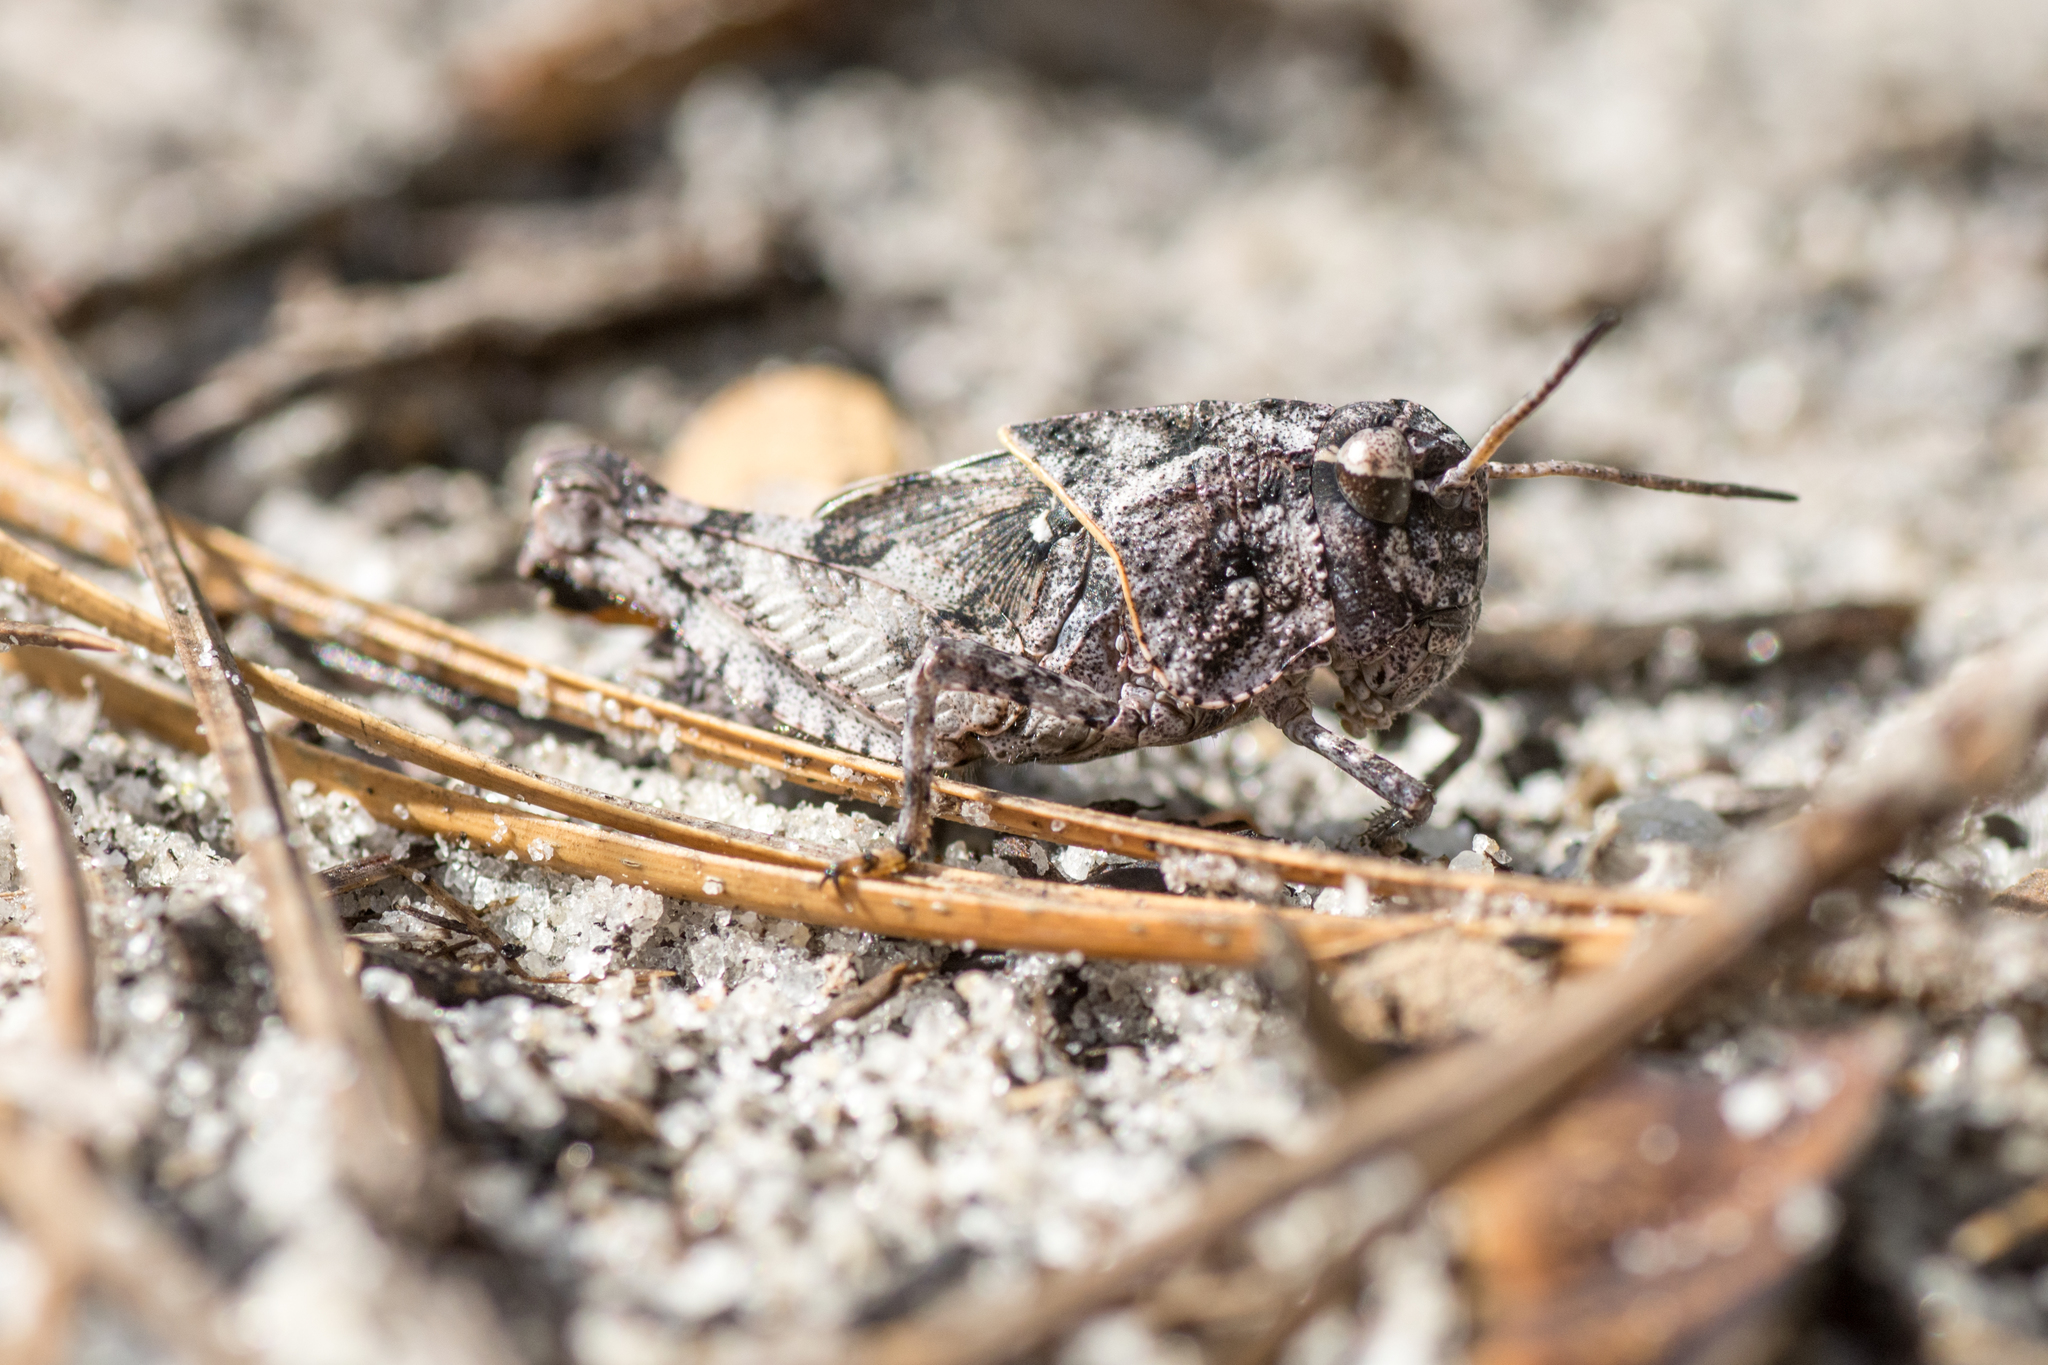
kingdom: Animalia
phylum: Arthropoda
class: Insecta
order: Orthoptera
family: Acrididae
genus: Pardalophora
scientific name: Pardalophora phoenicoptera
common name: Orange-winged grasshopper
